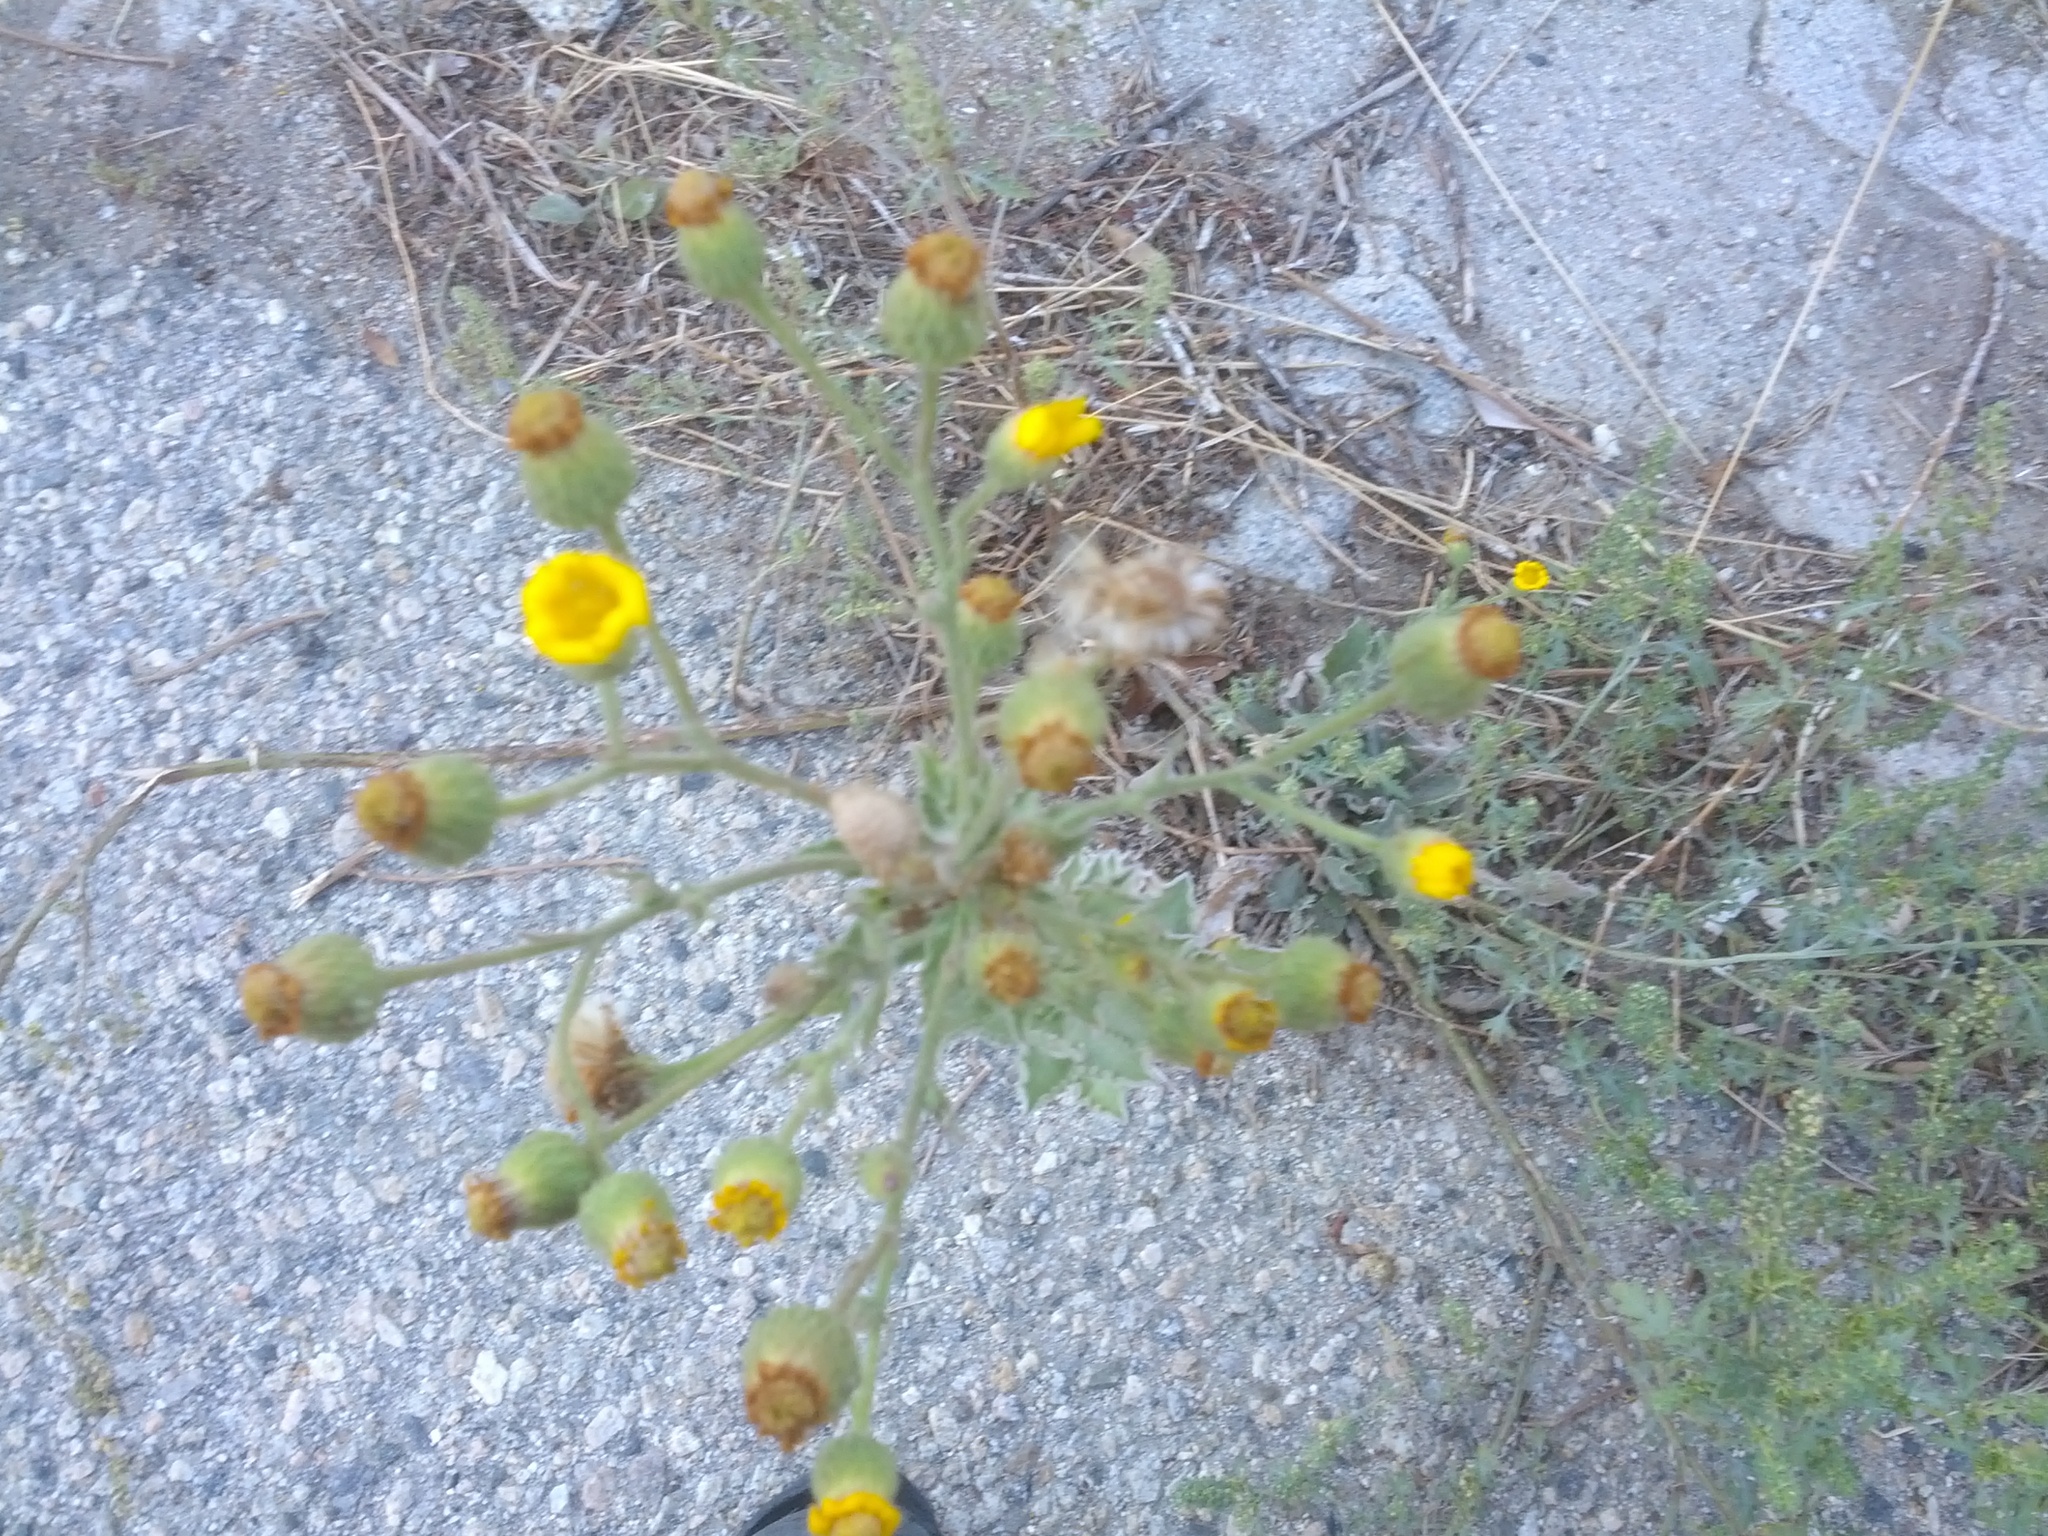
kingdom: Plantae
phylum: Tracheophyta
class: Magnoliopsida
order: Asterales
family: Asteraceae
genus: Heterotheca
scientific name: Heterotheca grandiflora
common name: Telegraphweed
